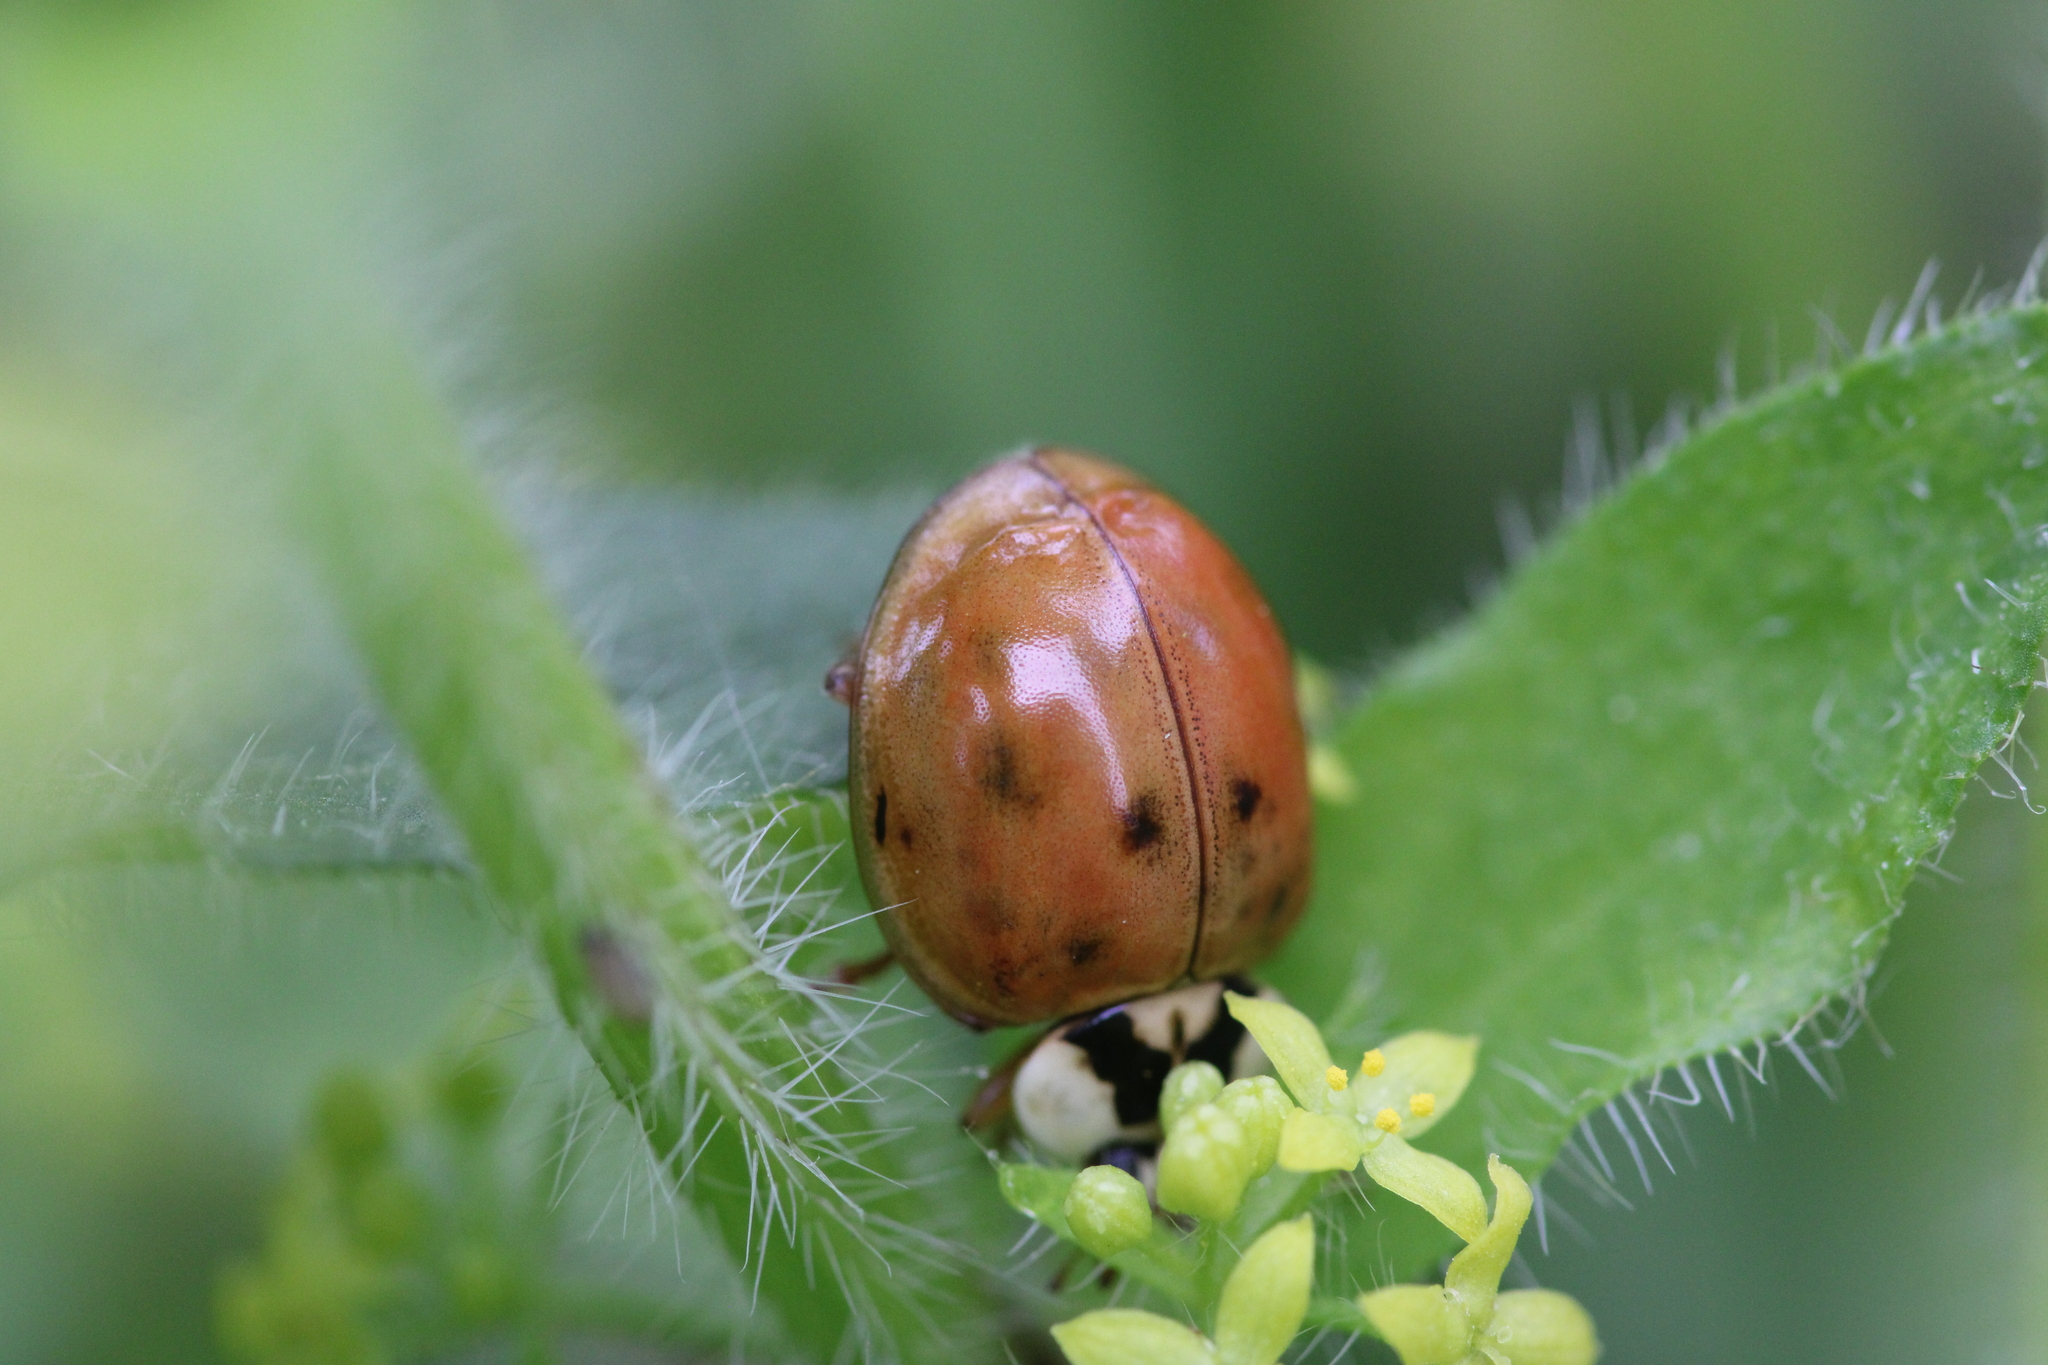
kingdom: Animalia
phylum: Arthropoda
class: Insecta
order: Coleoptera
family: Coccinellidae
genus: Harmonia
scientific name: Harmonia axyridis
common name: Harlequin ladybird
